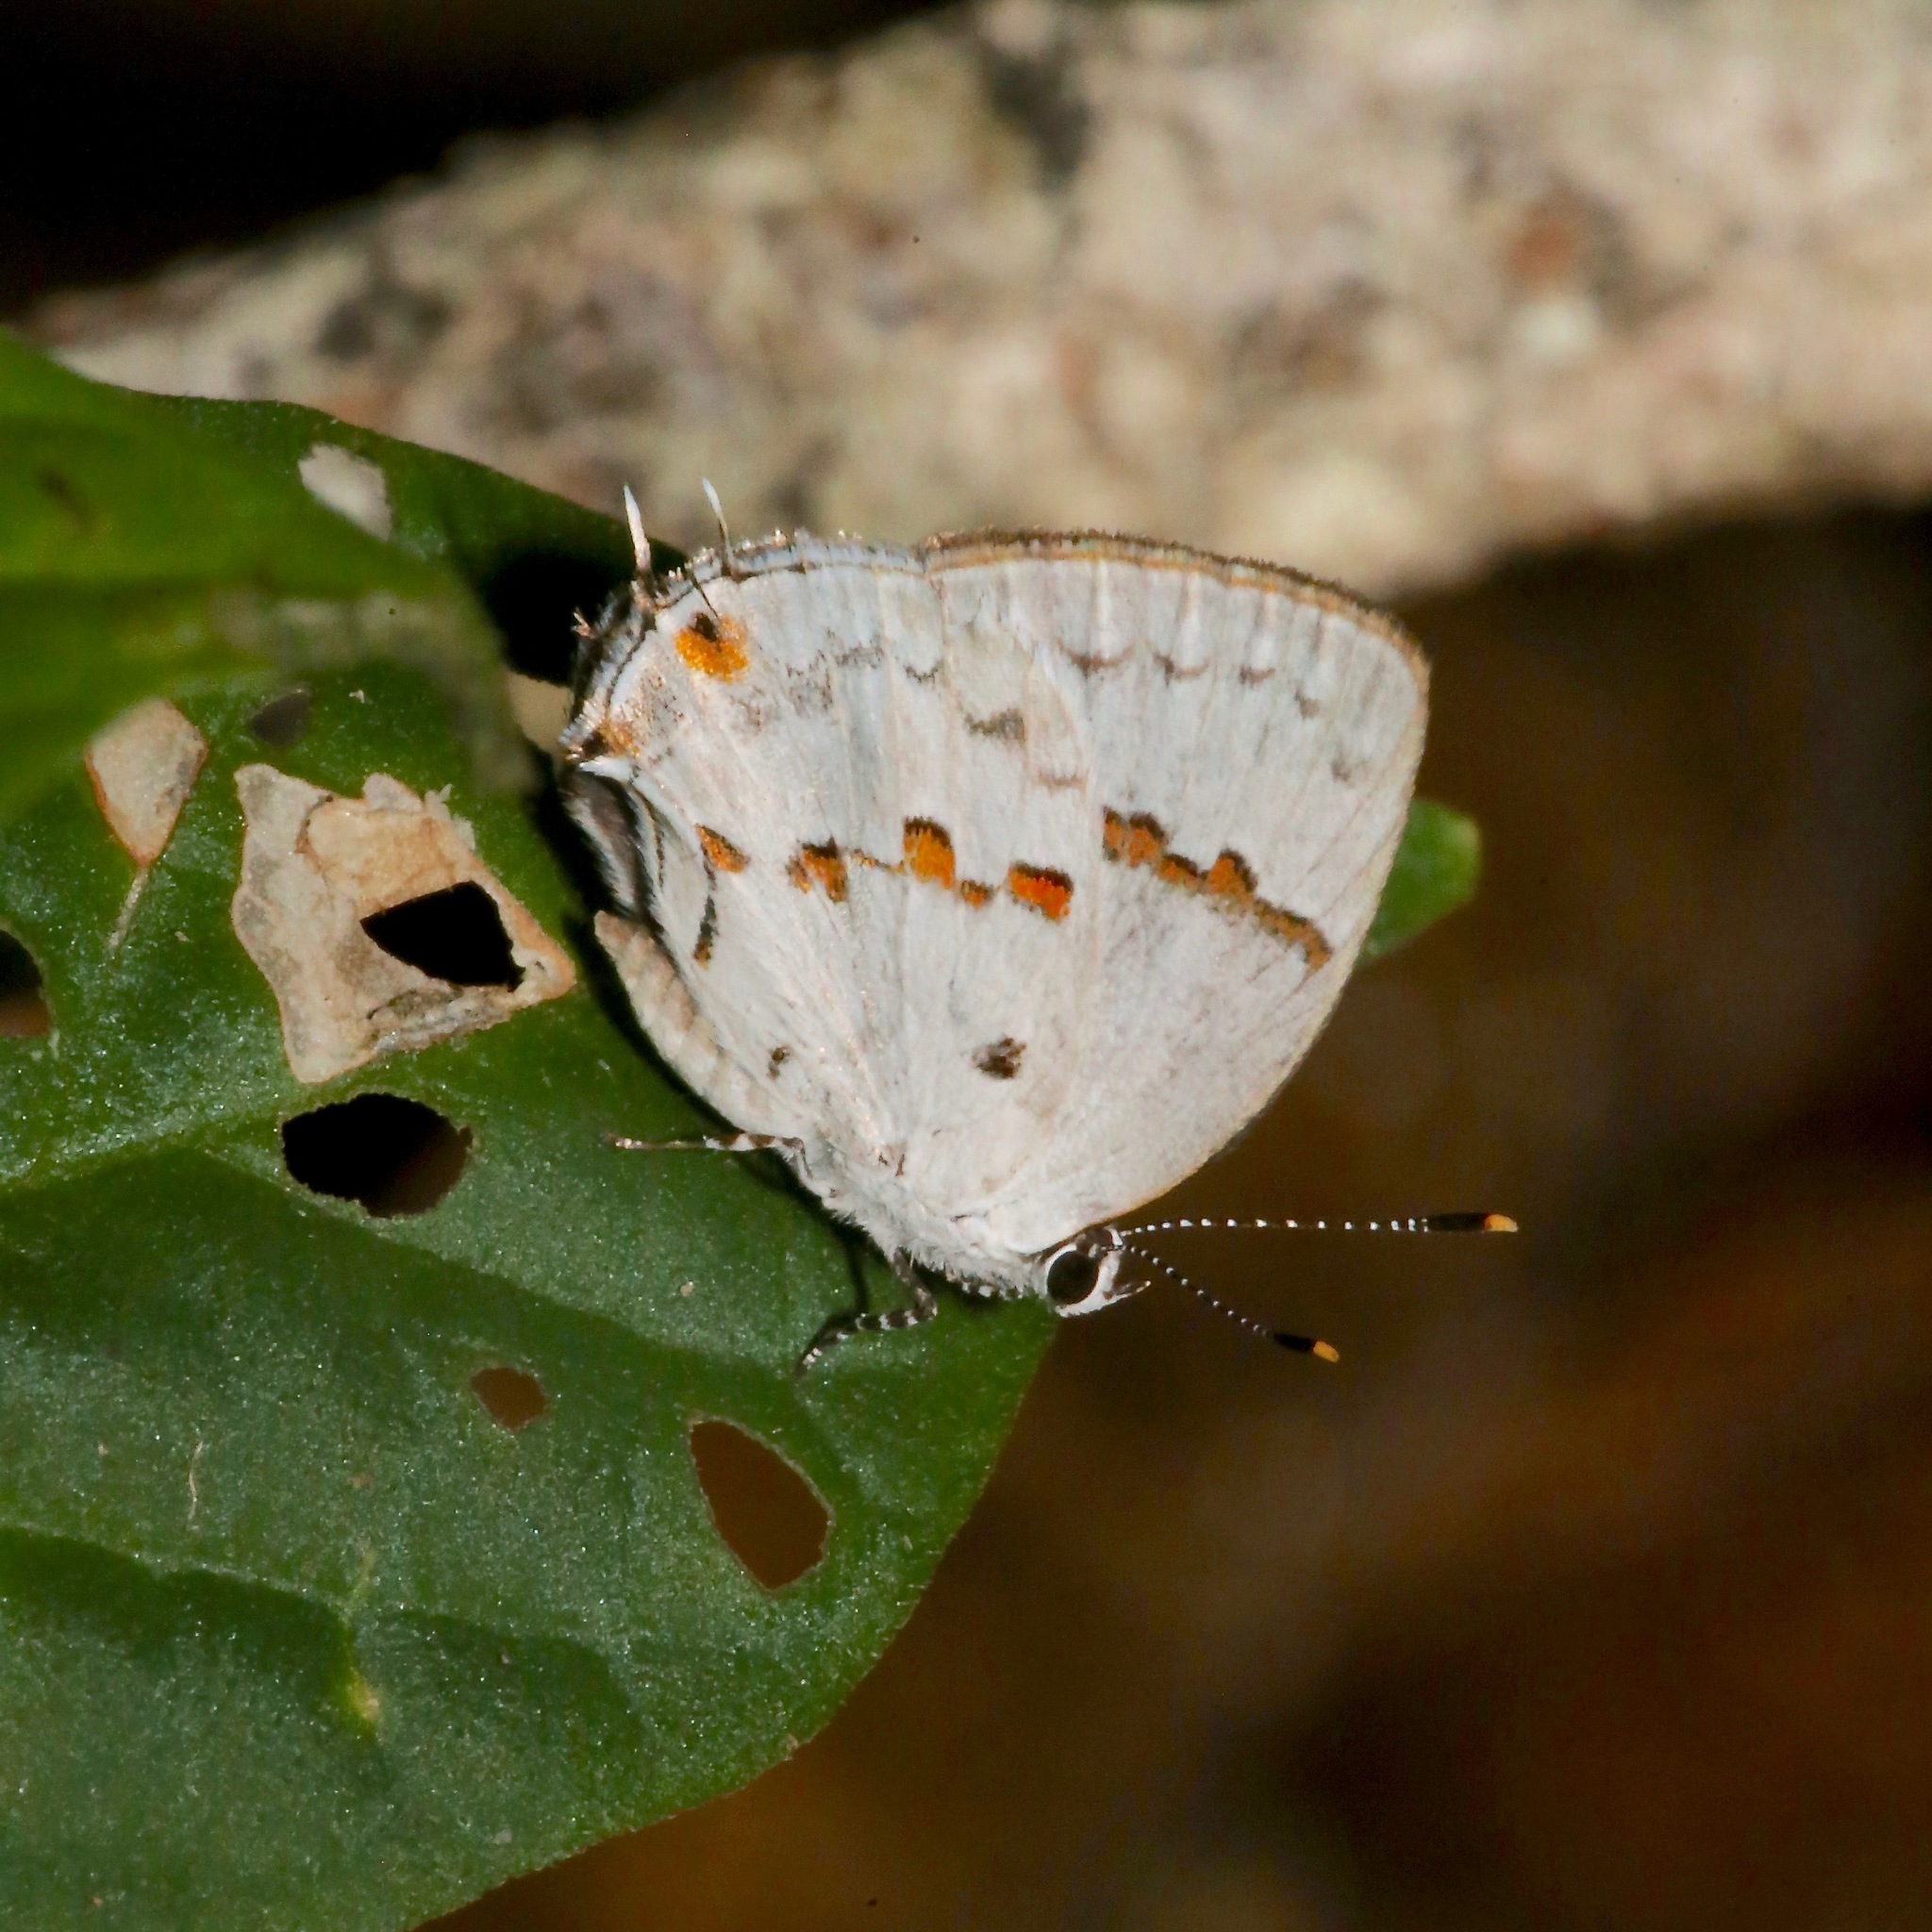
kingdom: Animalia
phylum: Arthropoda
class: Insecta
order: Lepidoptera
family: Lycaenidae
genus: Thecla
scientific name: Thecla celmus
